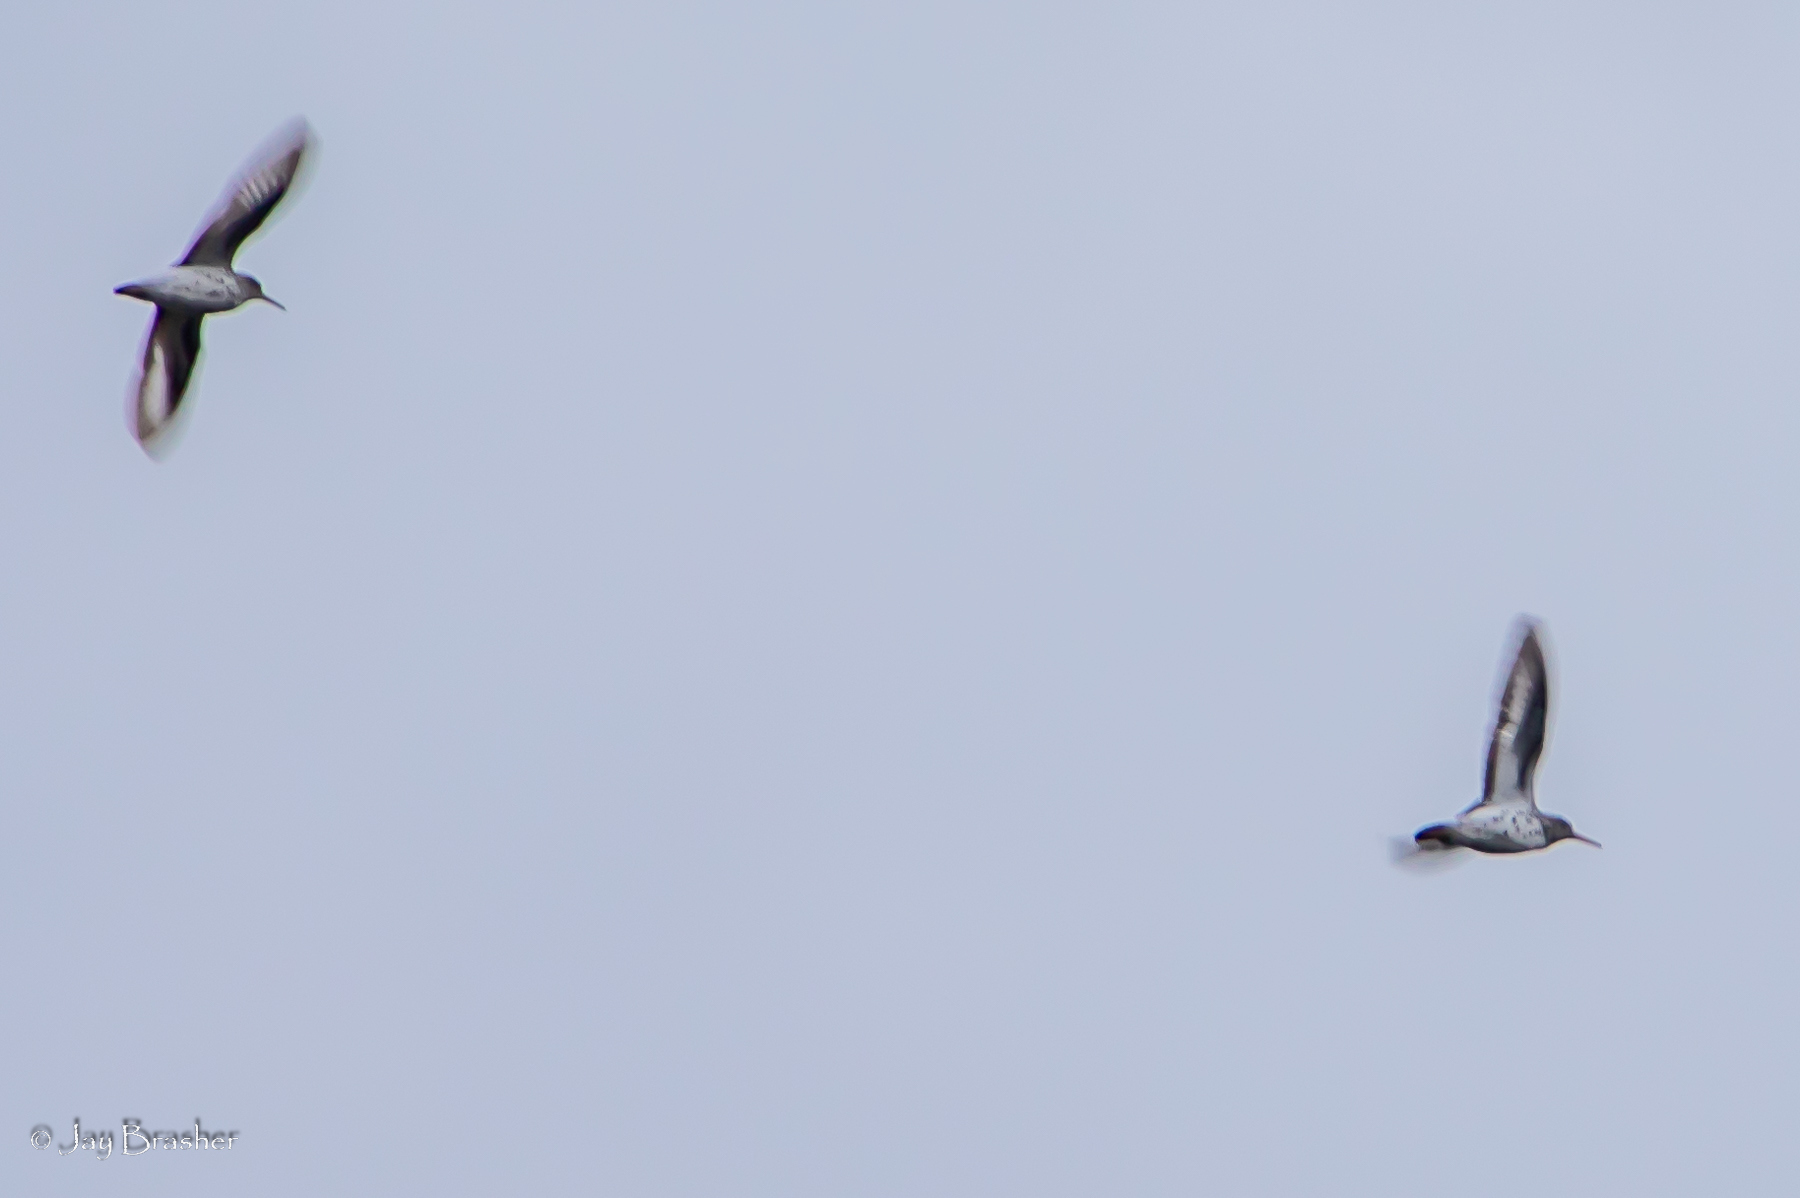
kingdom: Animalia
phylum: Chordata
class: Aves
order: Charadriiformes
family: Scolopacidae
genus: Actitis
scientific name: Actitis macularius
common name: Spotted sandpiper
